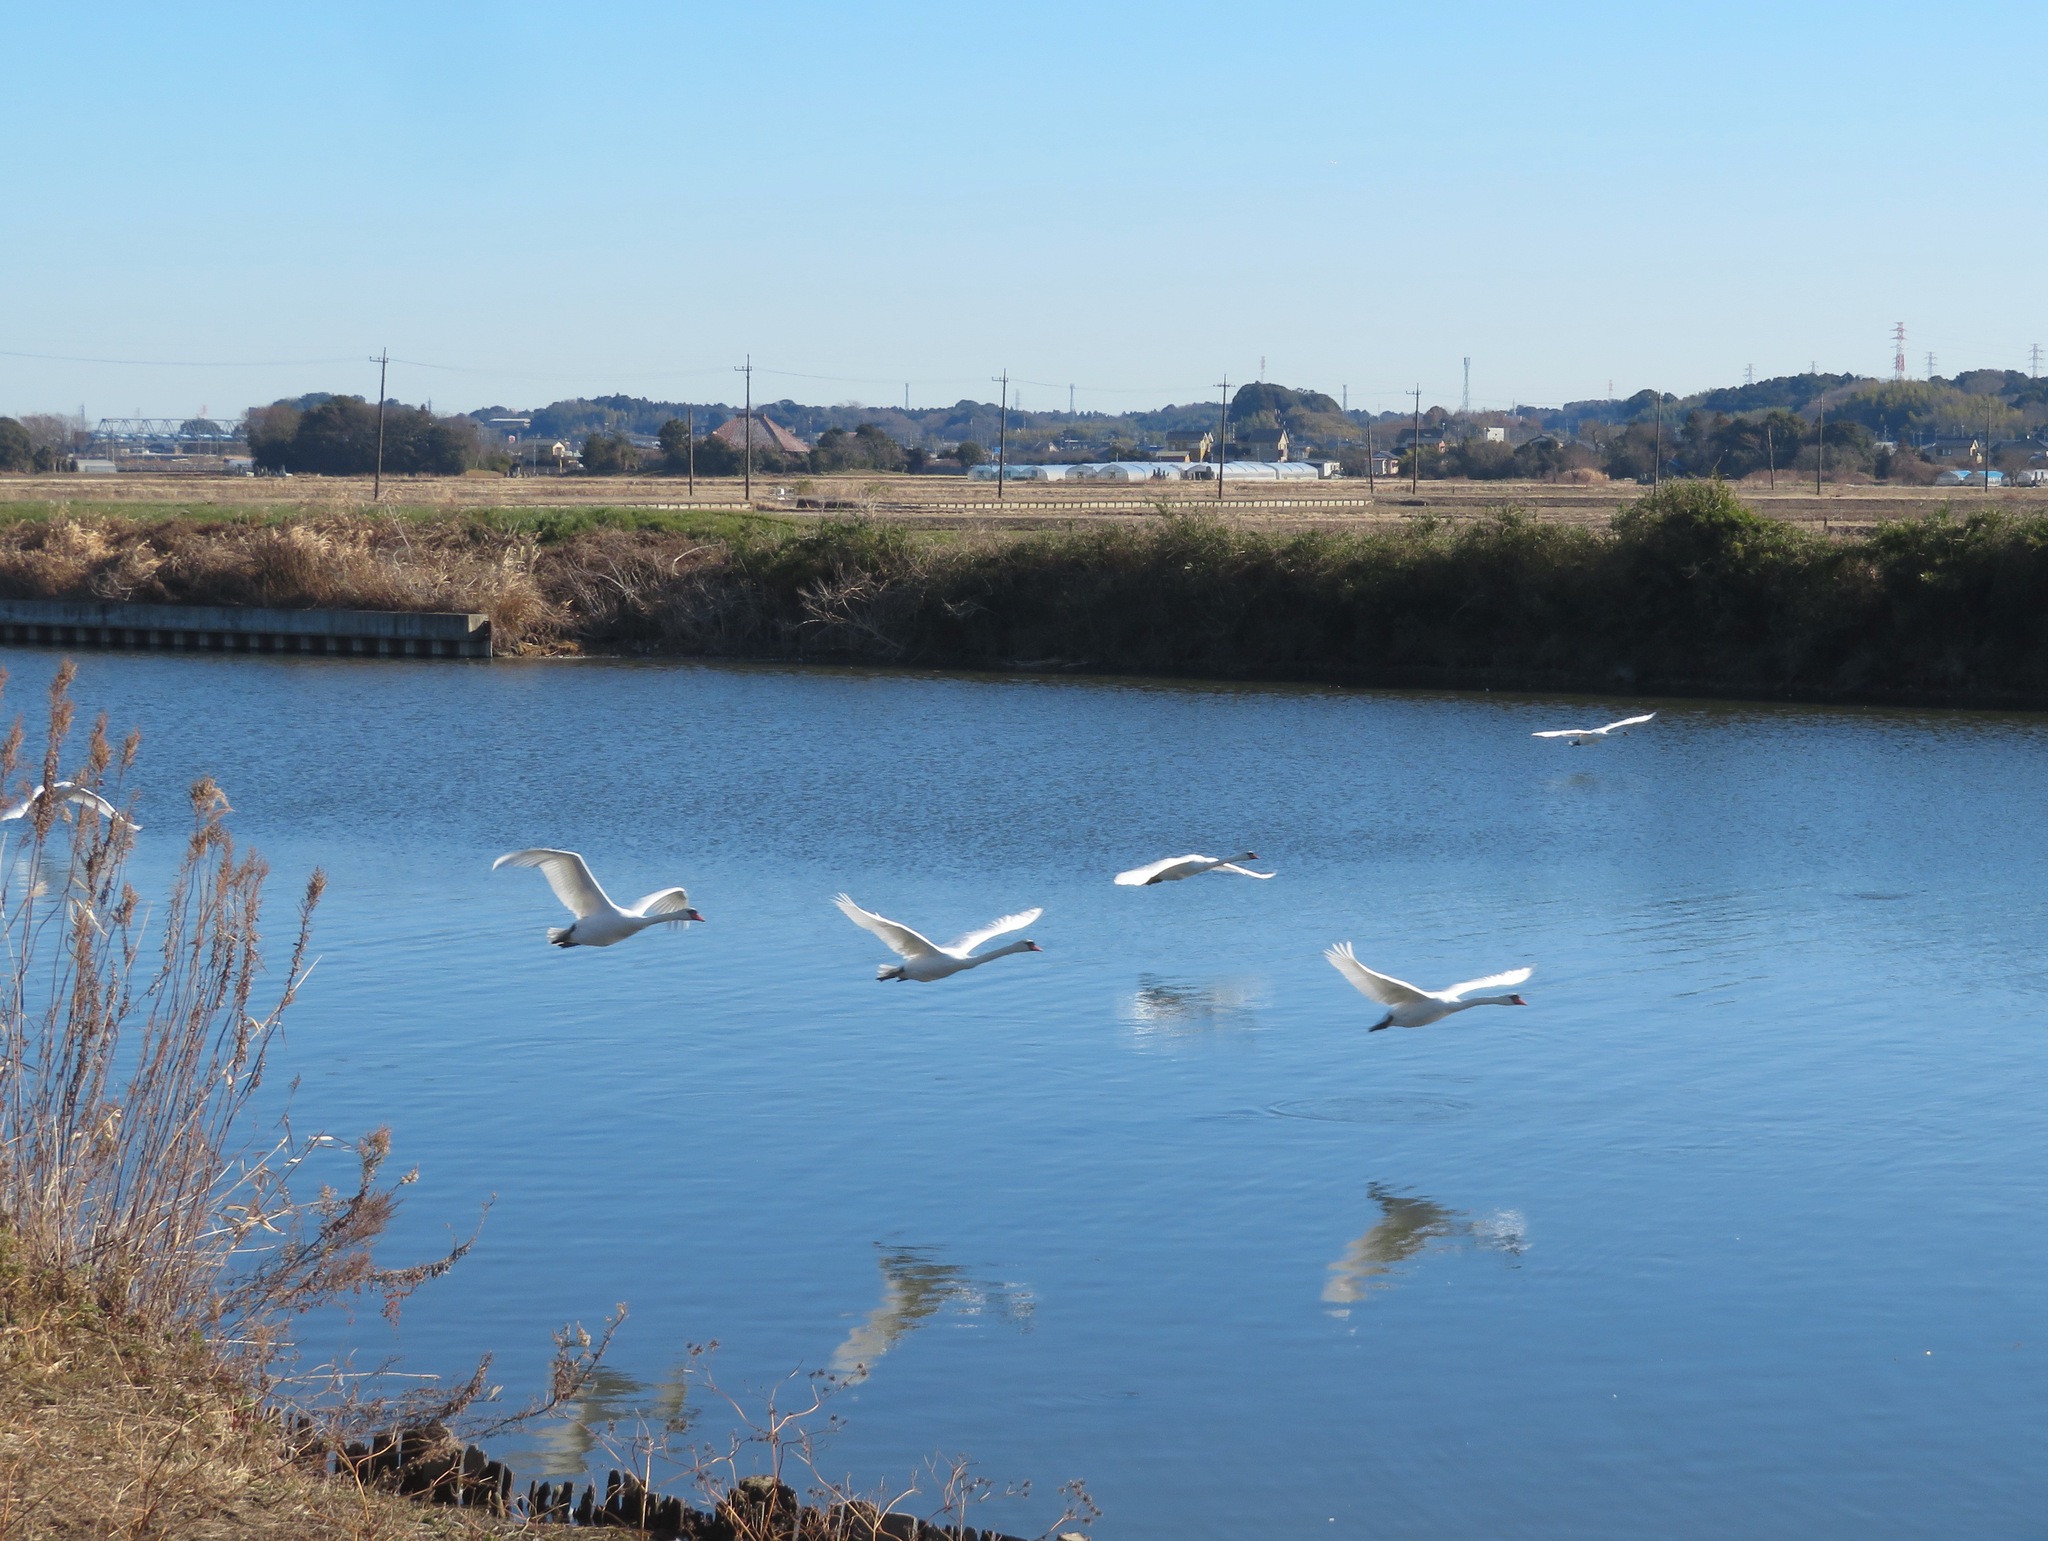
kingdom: Animalia
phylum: Chordata
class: Aves
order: Anseriformes
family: Anatidae
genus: Cygnus
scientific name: Cygnus olor
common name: Mute swan
